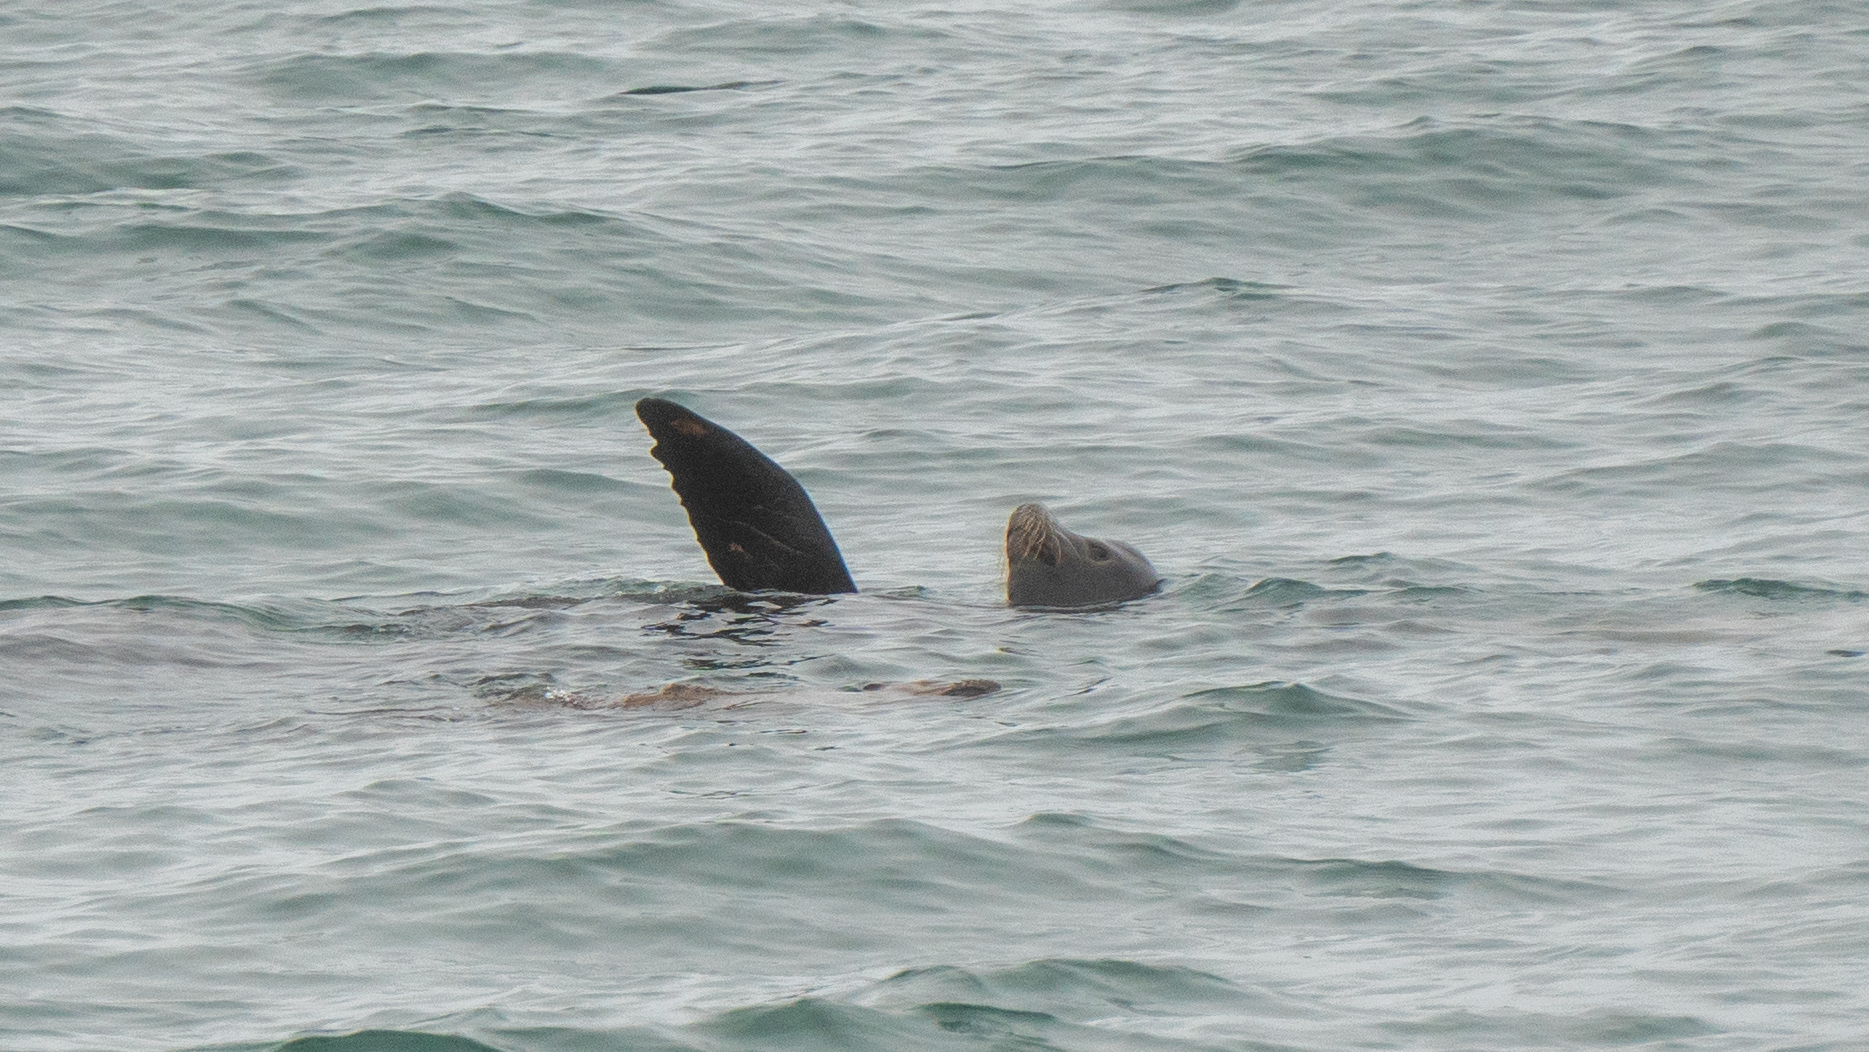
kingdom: Animalia
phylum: Chordata
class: Mammalia
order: Carnivora
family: Otariidae
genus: Zalophus
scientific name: Zalophus californianus
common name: California sea lion
